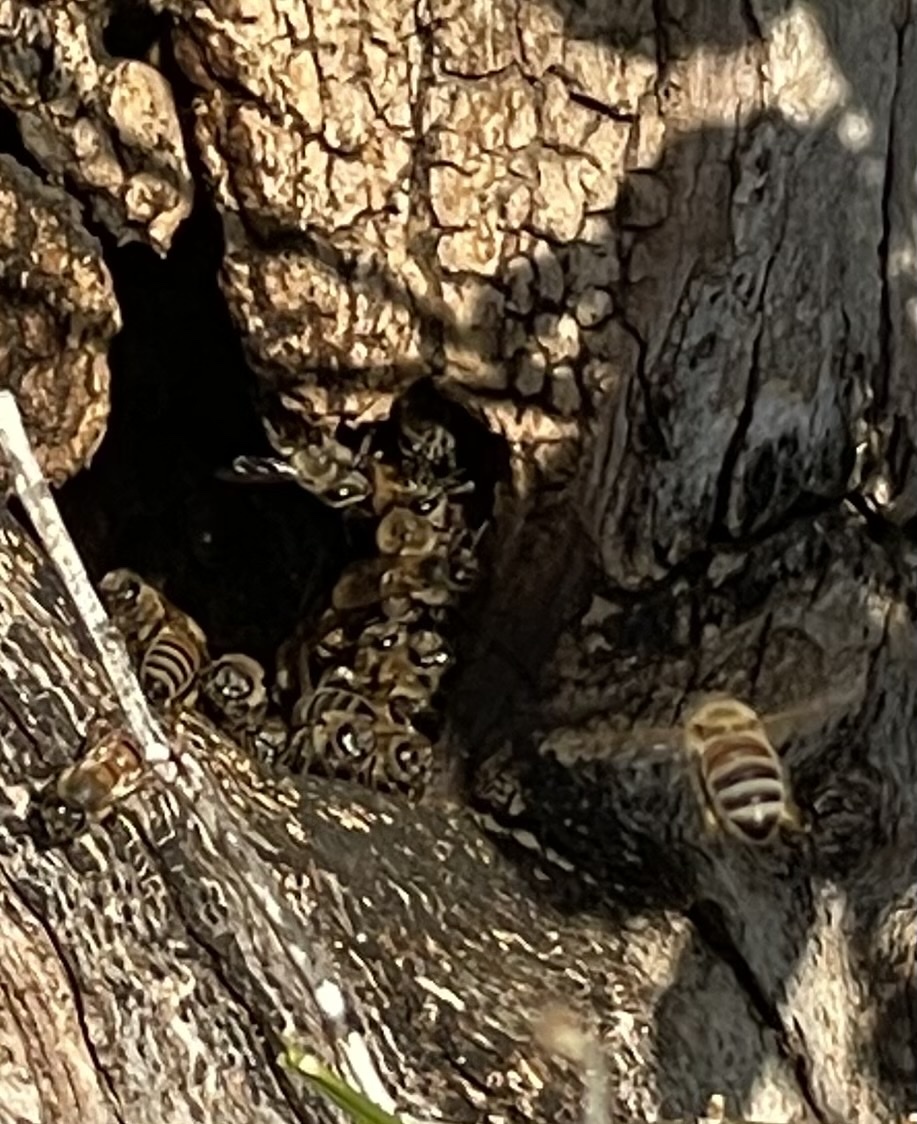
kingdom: Animalia
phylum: Arthropoda
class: Insecta
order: Hymenoptera
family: Apidae
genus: Apis
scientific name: Apis mellifera
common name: Honey bee
